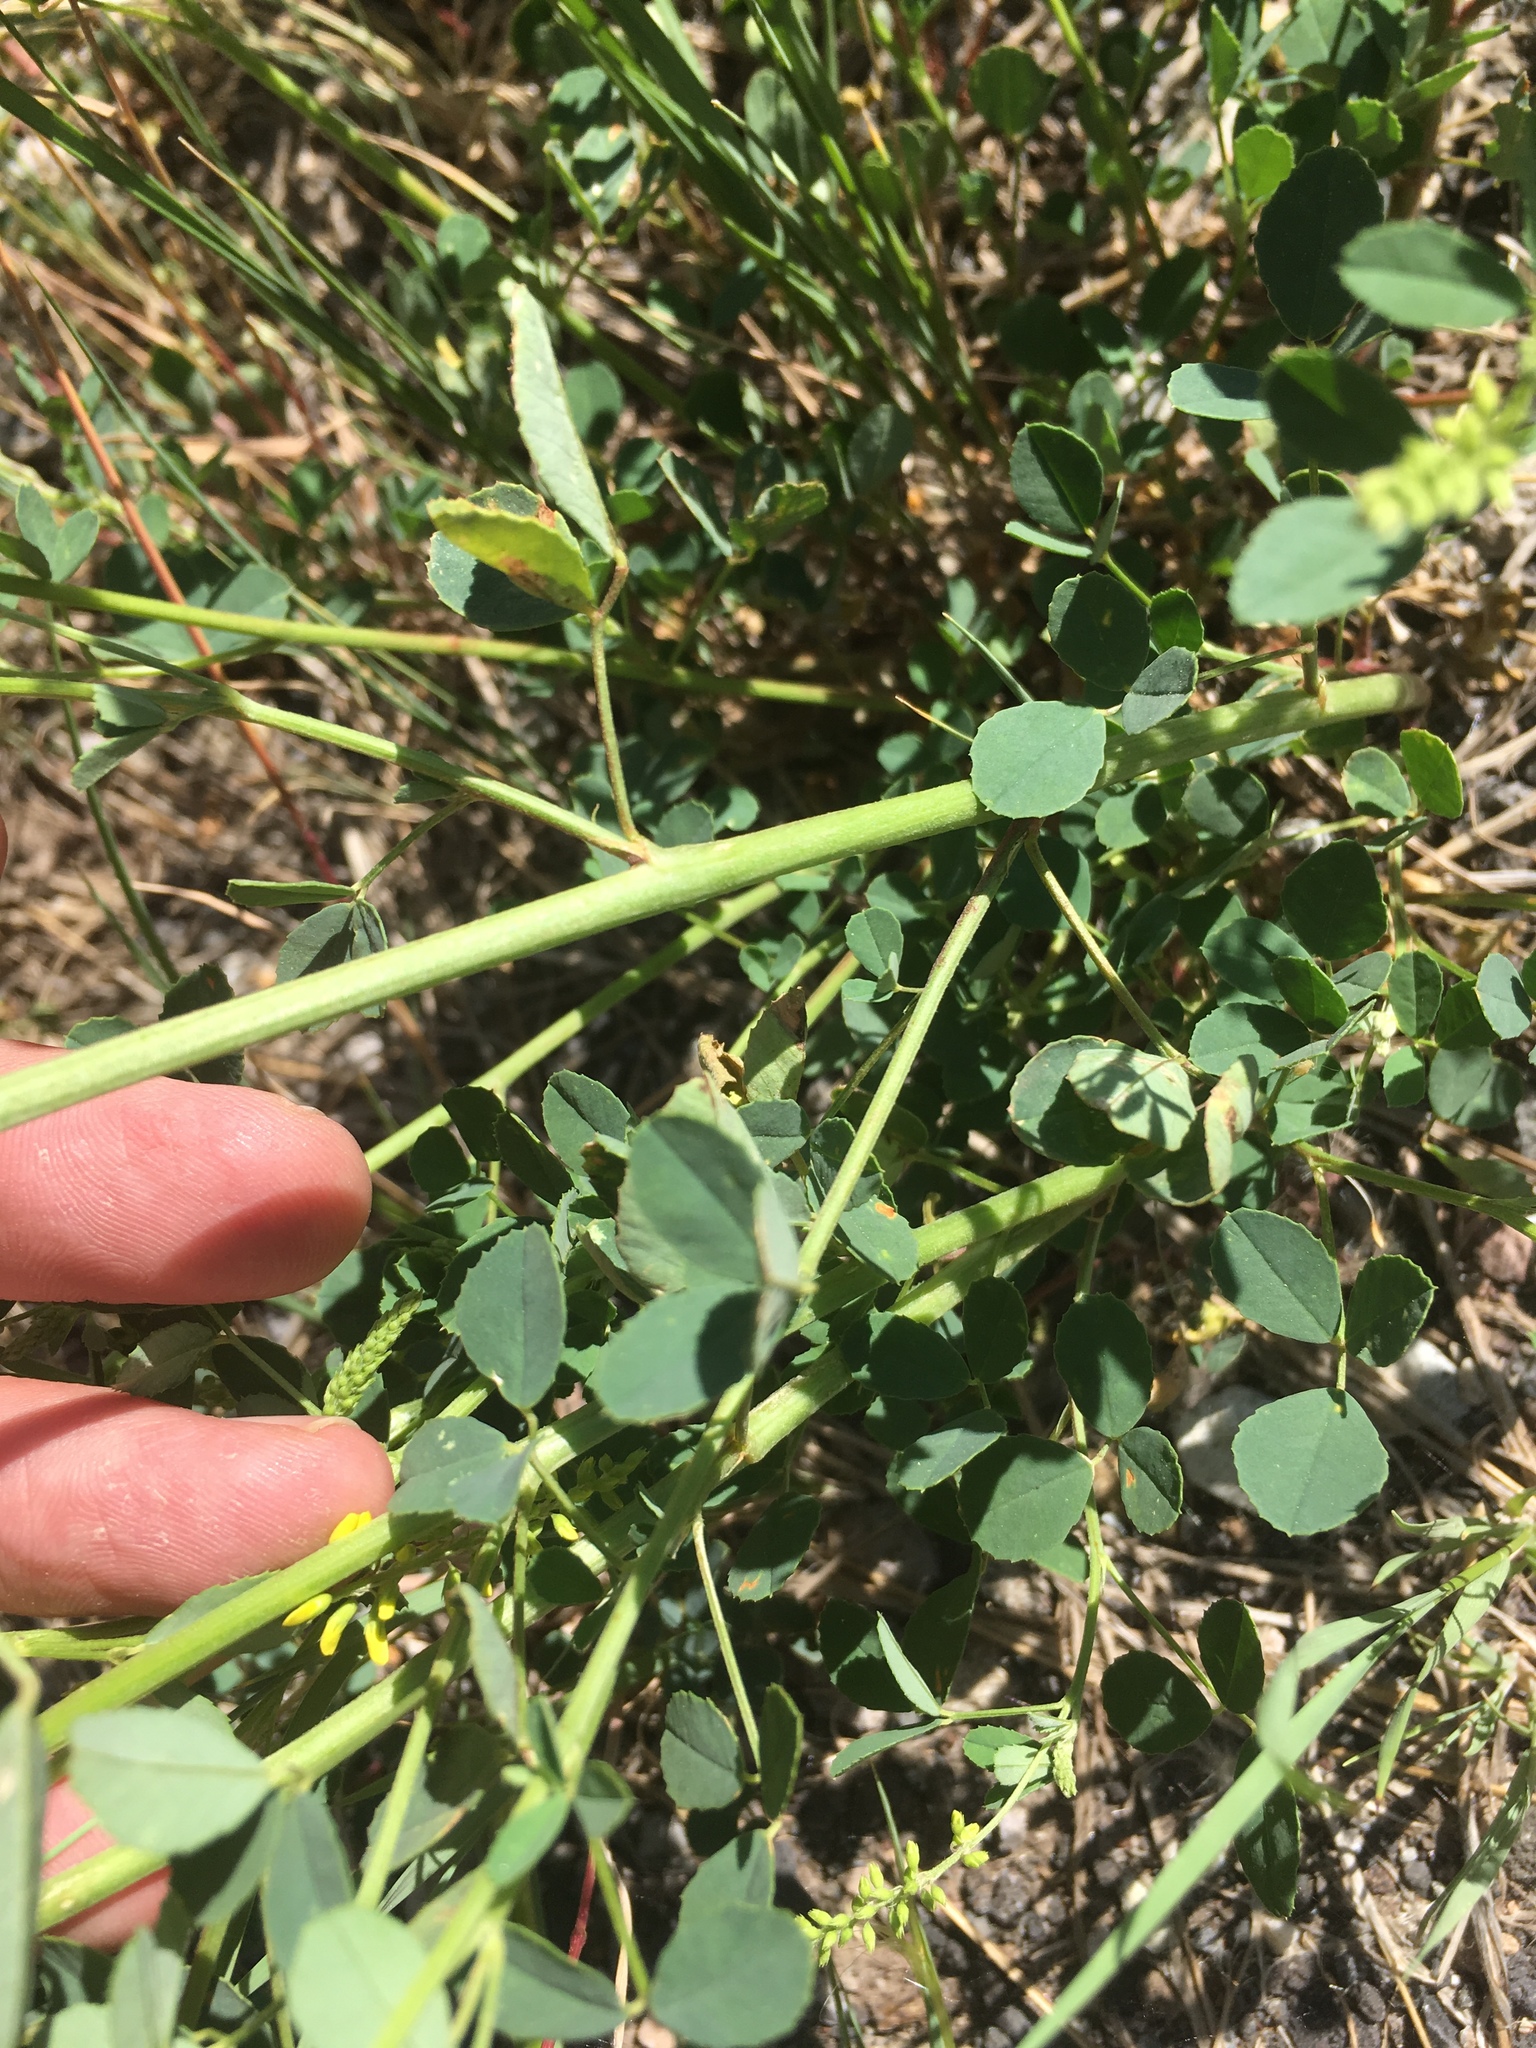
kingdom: Plantae
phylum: Tracheophyta
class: Magnoliopsida
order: Fabales
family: Fabaceae
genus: Melilotus
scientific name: Melilotus officinalis
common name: Sweetclover
